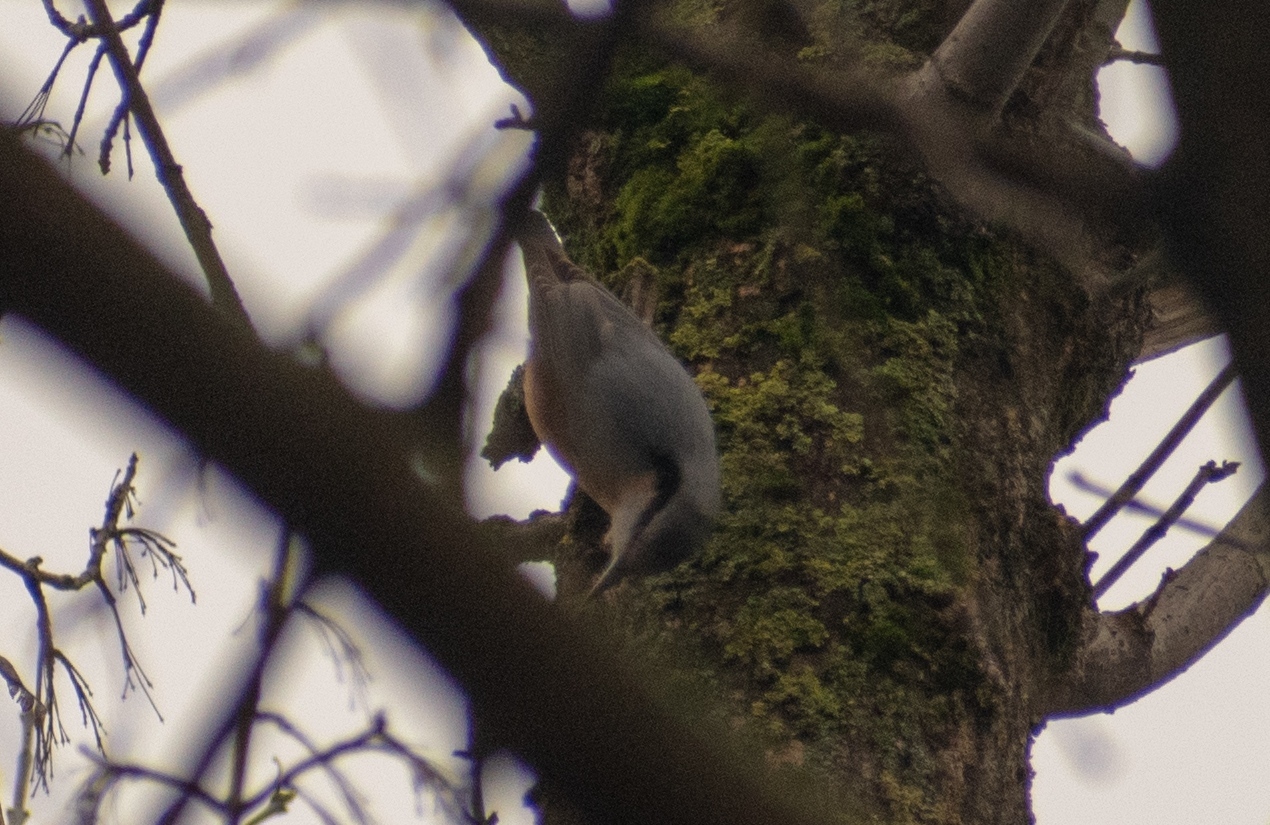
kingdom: Animalia
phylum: Chordata
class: Aves
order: Passeriformes
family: Sittidae
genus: Sitta
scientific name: Sitta europaea
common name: Eurasian nuthatch
